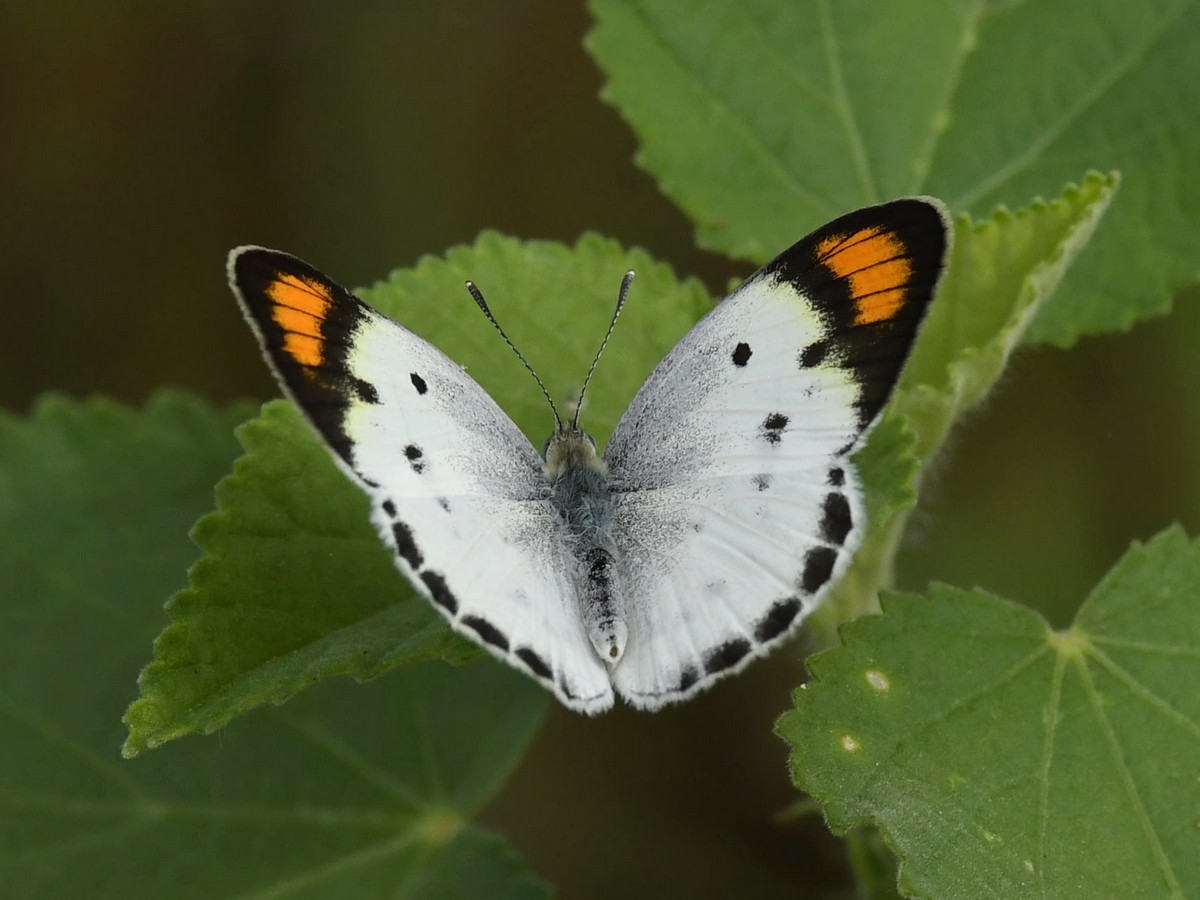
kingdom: Animalia
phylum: Arthropoda
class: Insecta
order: Lepidoptera
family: Pieridae
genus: Colotis
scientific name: Colotis etrida
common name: Little orange tip
